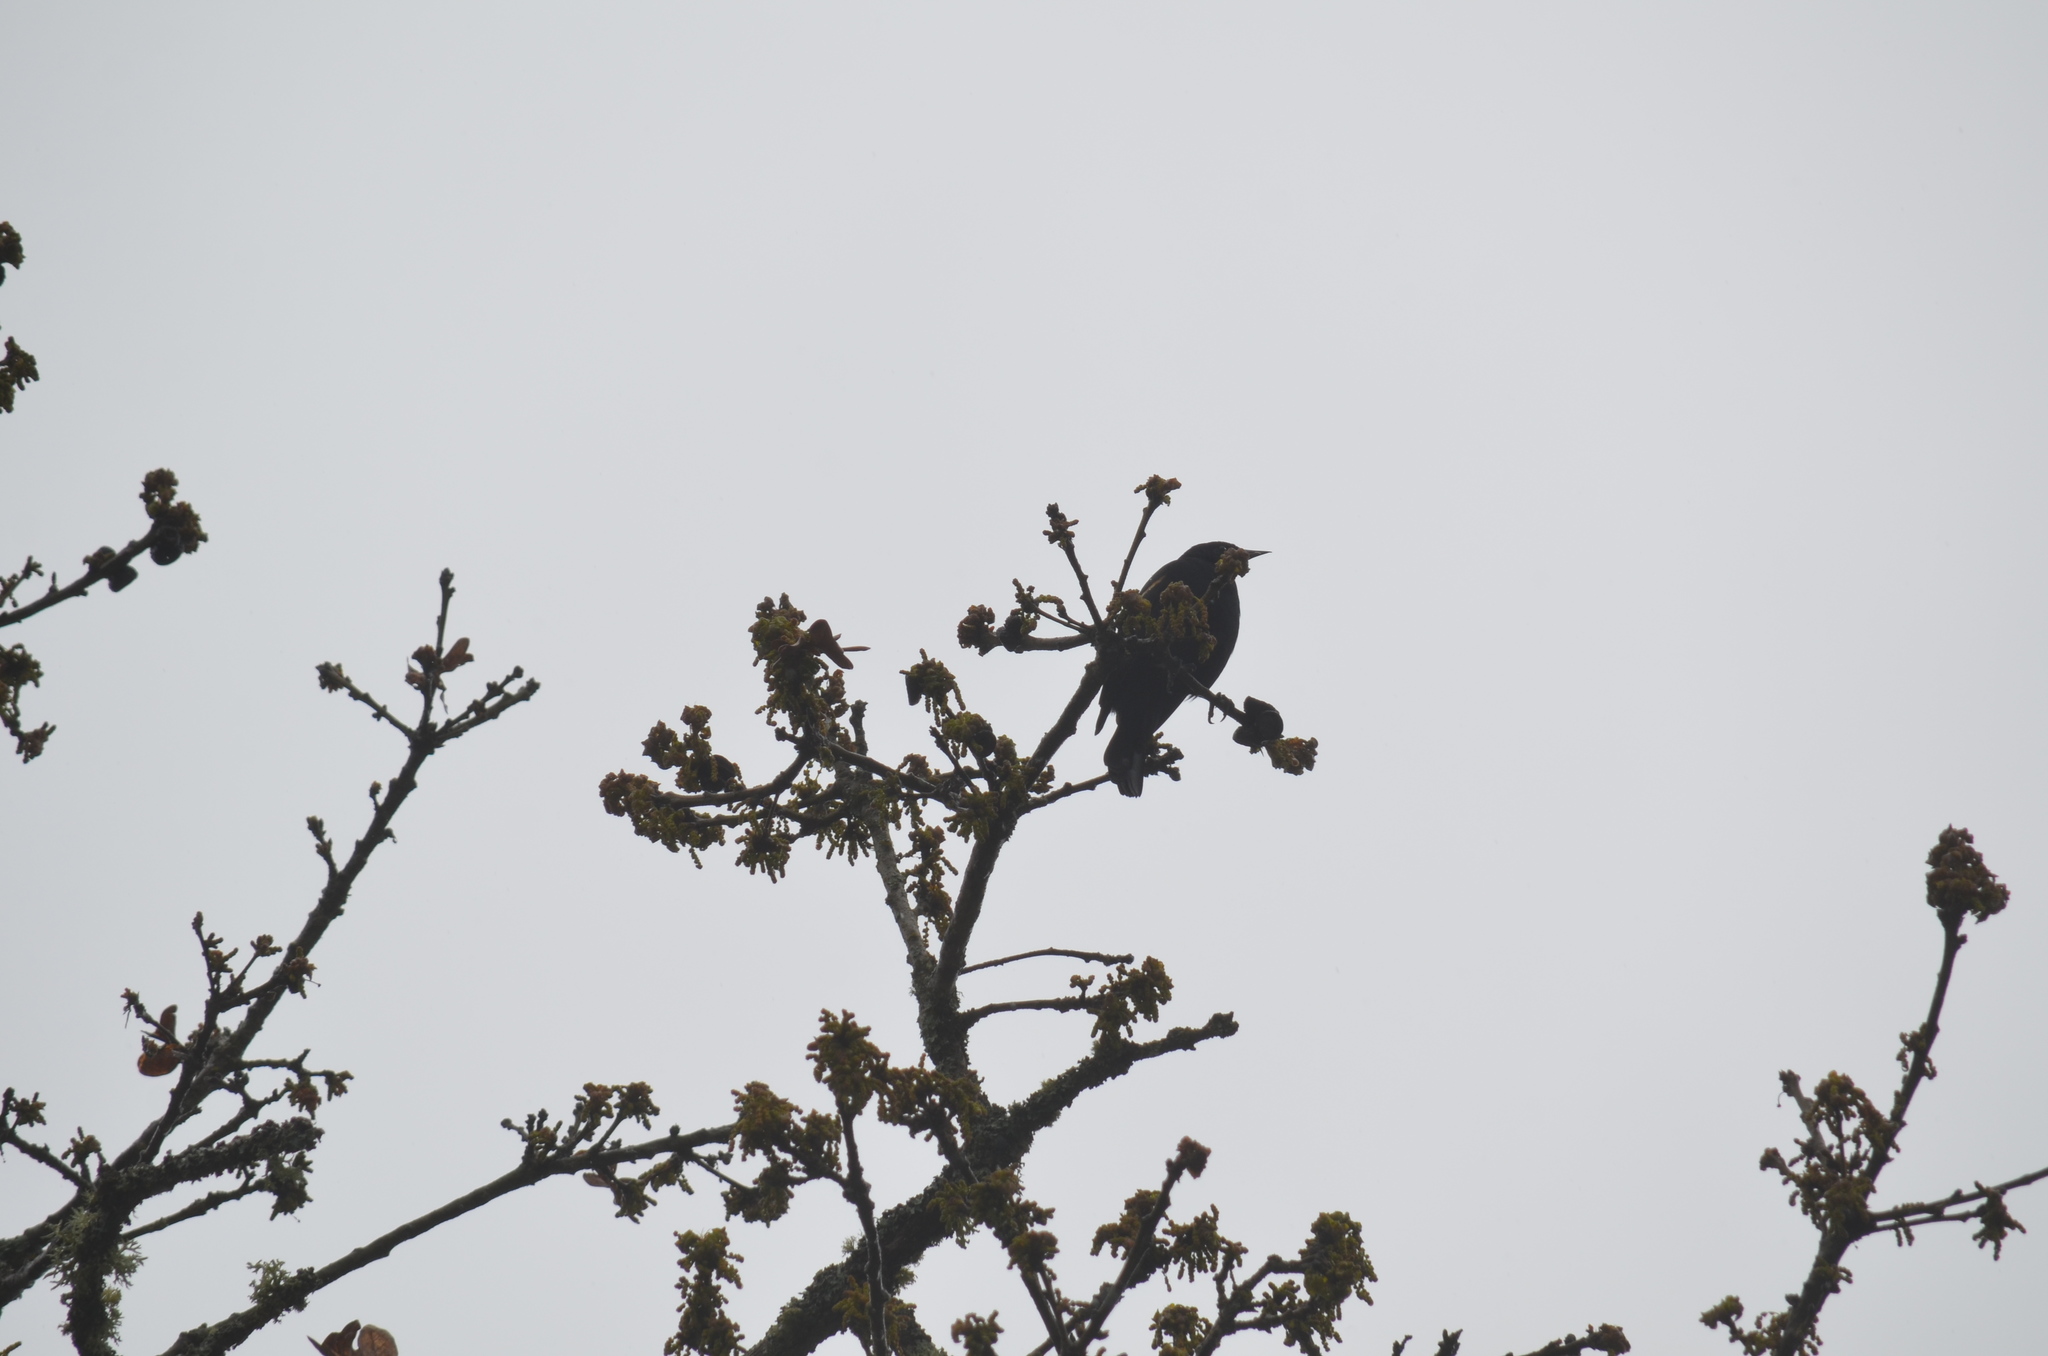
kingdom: Animalia
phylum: Chordata
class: Aves
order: Passeriformes
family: Icteridae
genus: Agelaius
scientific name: Agelaius phoeniceus
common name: Red-winged blackbird
